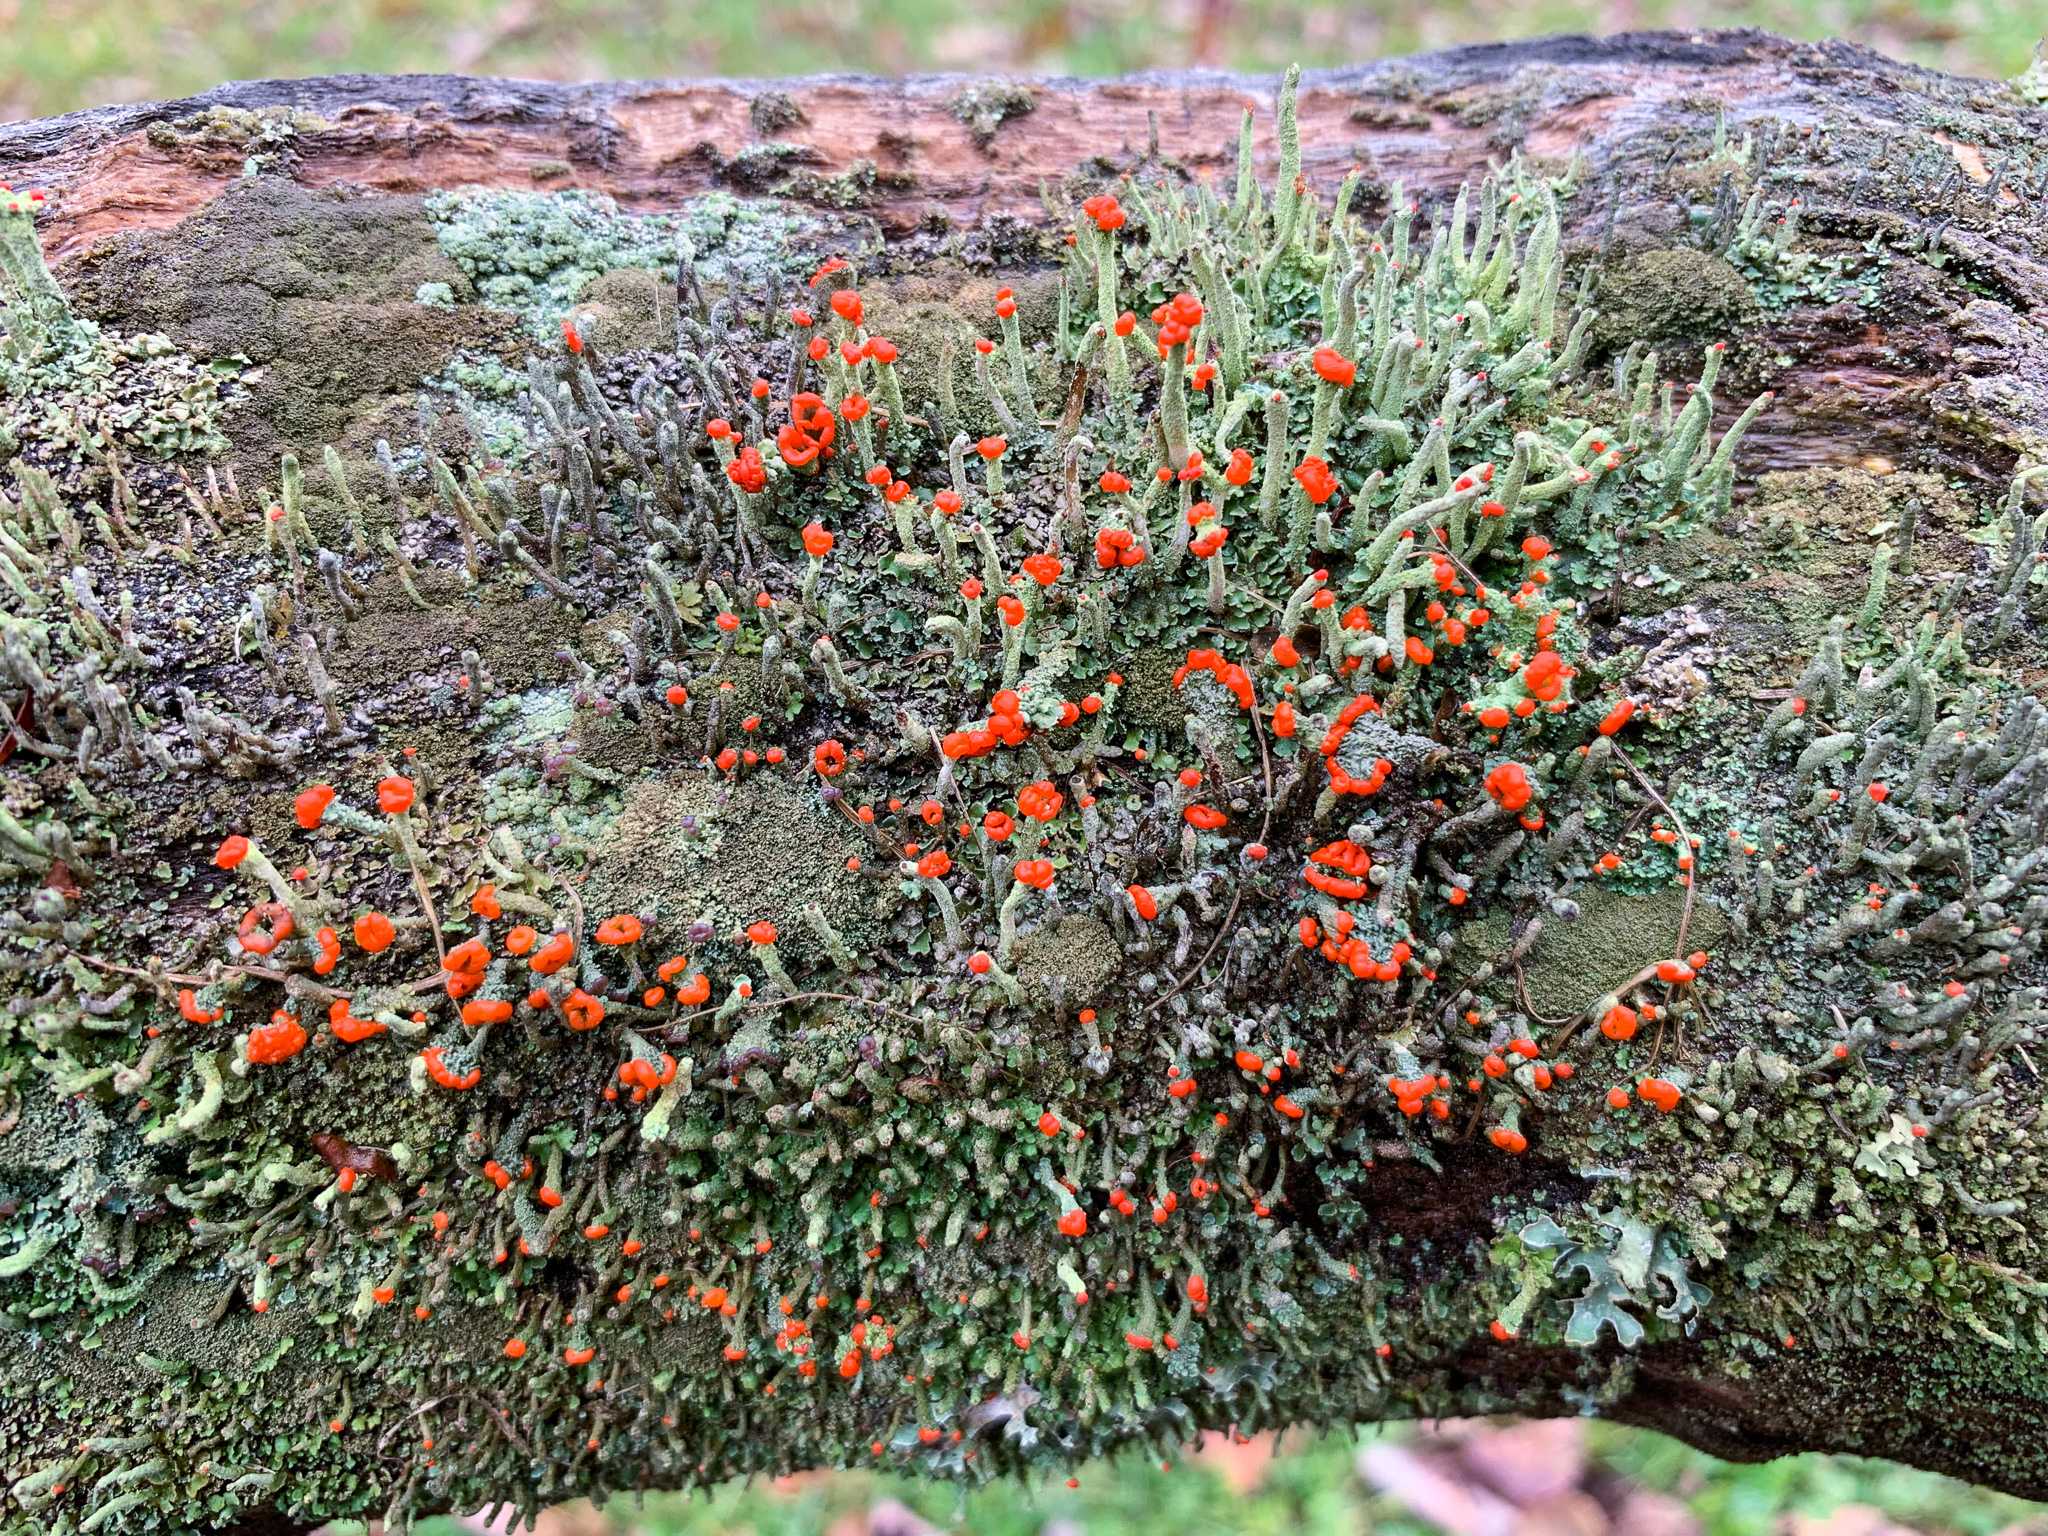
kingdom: Fungi
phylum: Ascomycota
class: Lecanoromycetes
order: Lecanorales
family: Cladoniaceae
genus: Cladonia
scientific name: Cladonia cristatella
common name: British soldier lichen
